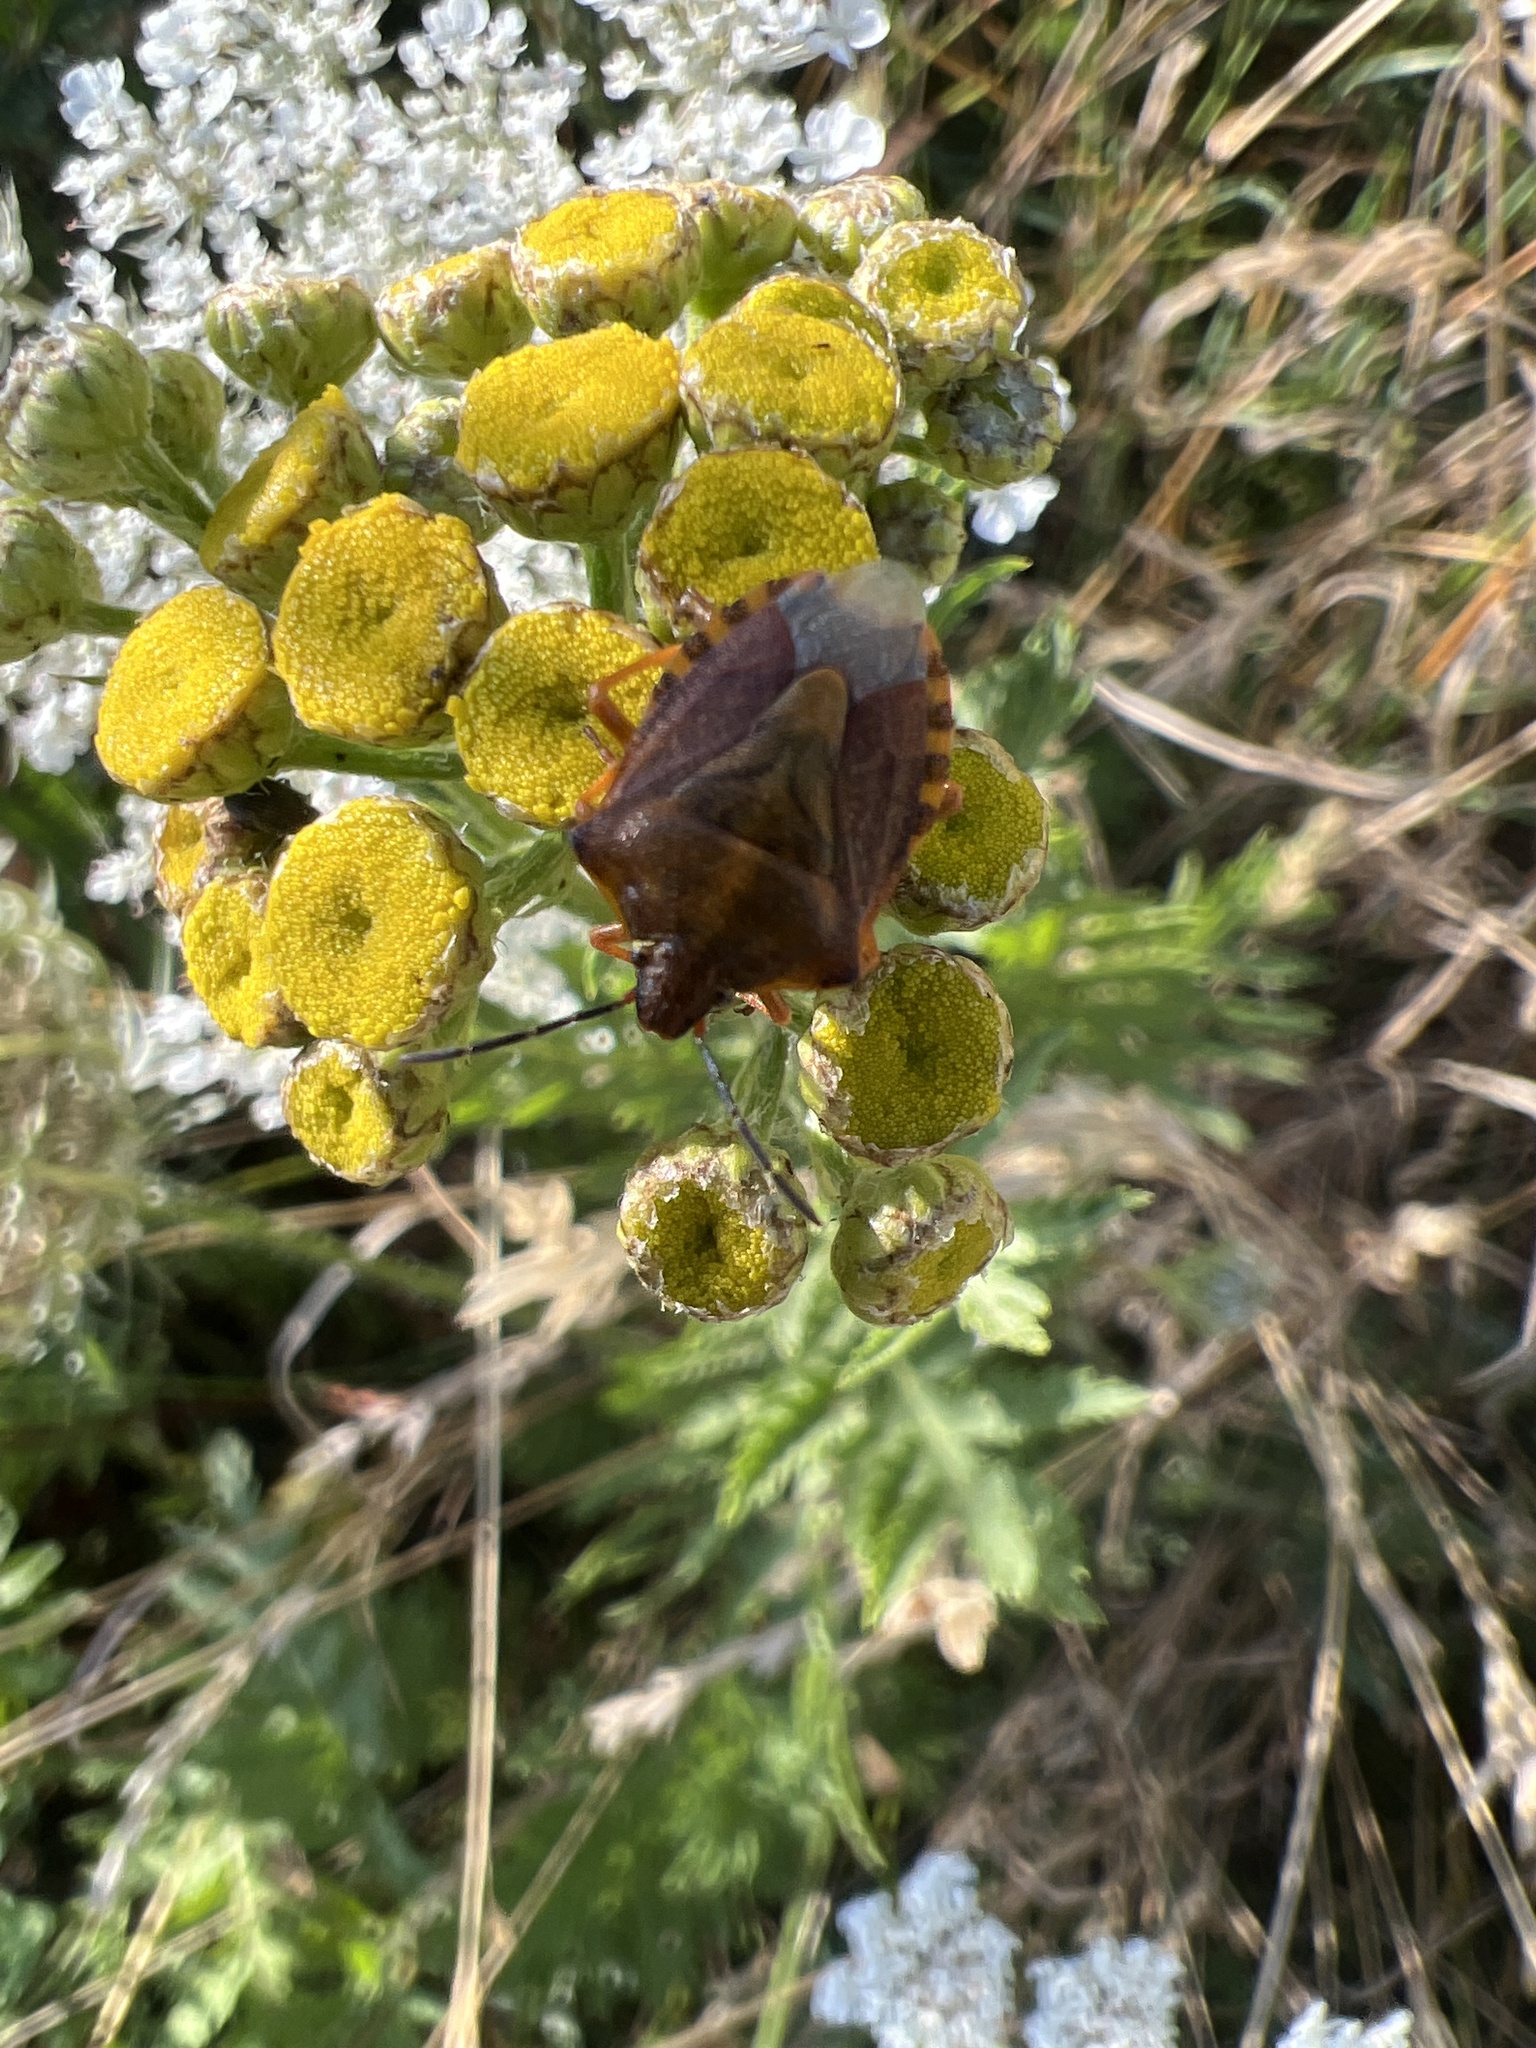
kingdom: Animalia
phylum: Arthropoda
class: Insecta
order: Hemiptera
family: Pentatomidae
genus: Carpocoris
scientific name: Carpocoris purpureipennis
